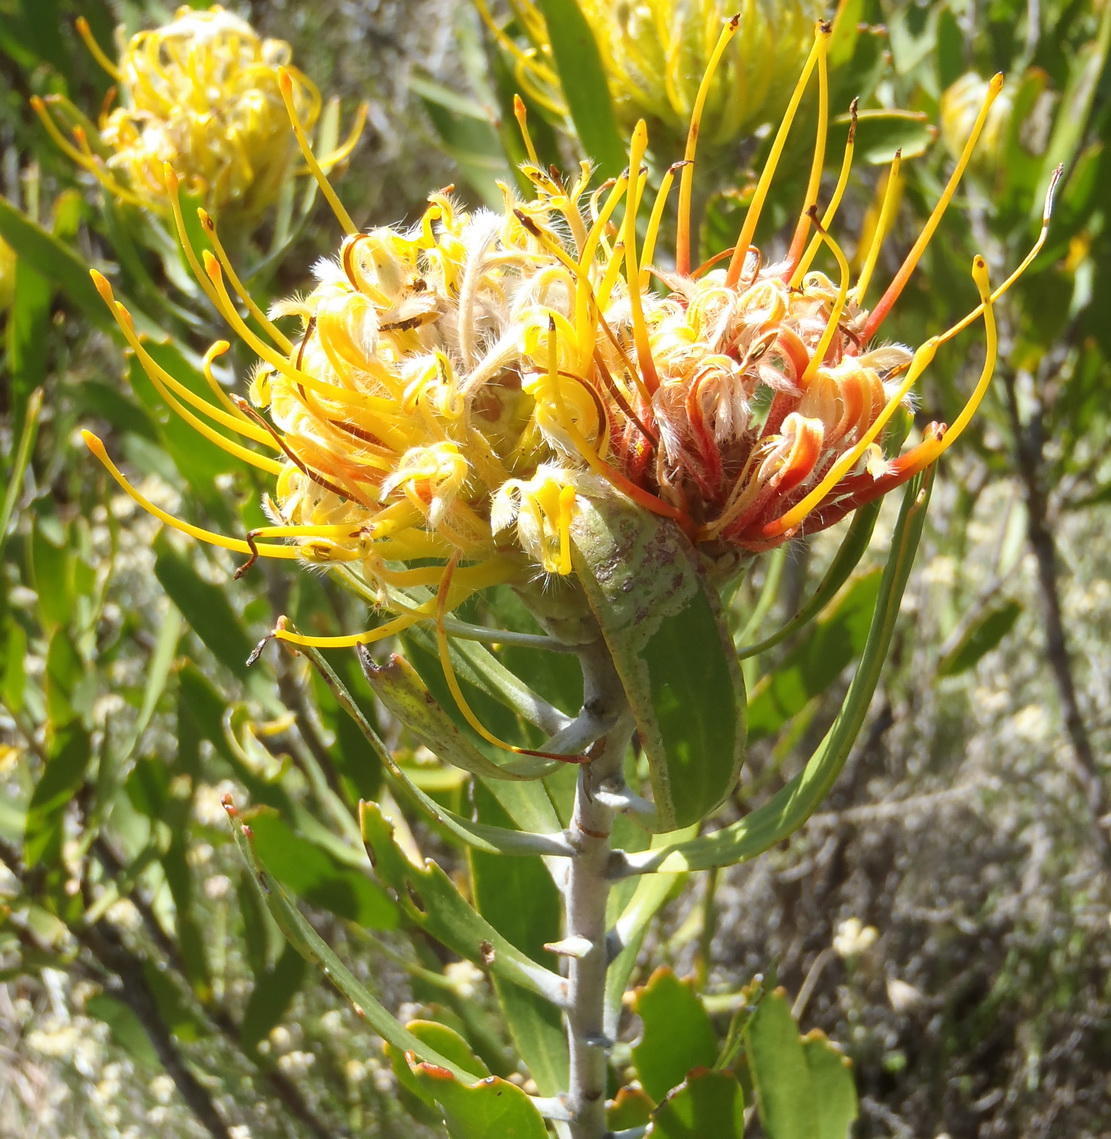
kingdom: Plantae
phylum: Tracheophyta
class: Magnoliopsida
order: Proteales
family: Proteaceae
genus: Leucospermum
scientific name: Leucospermum cuneiforme
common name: Common pincushion
